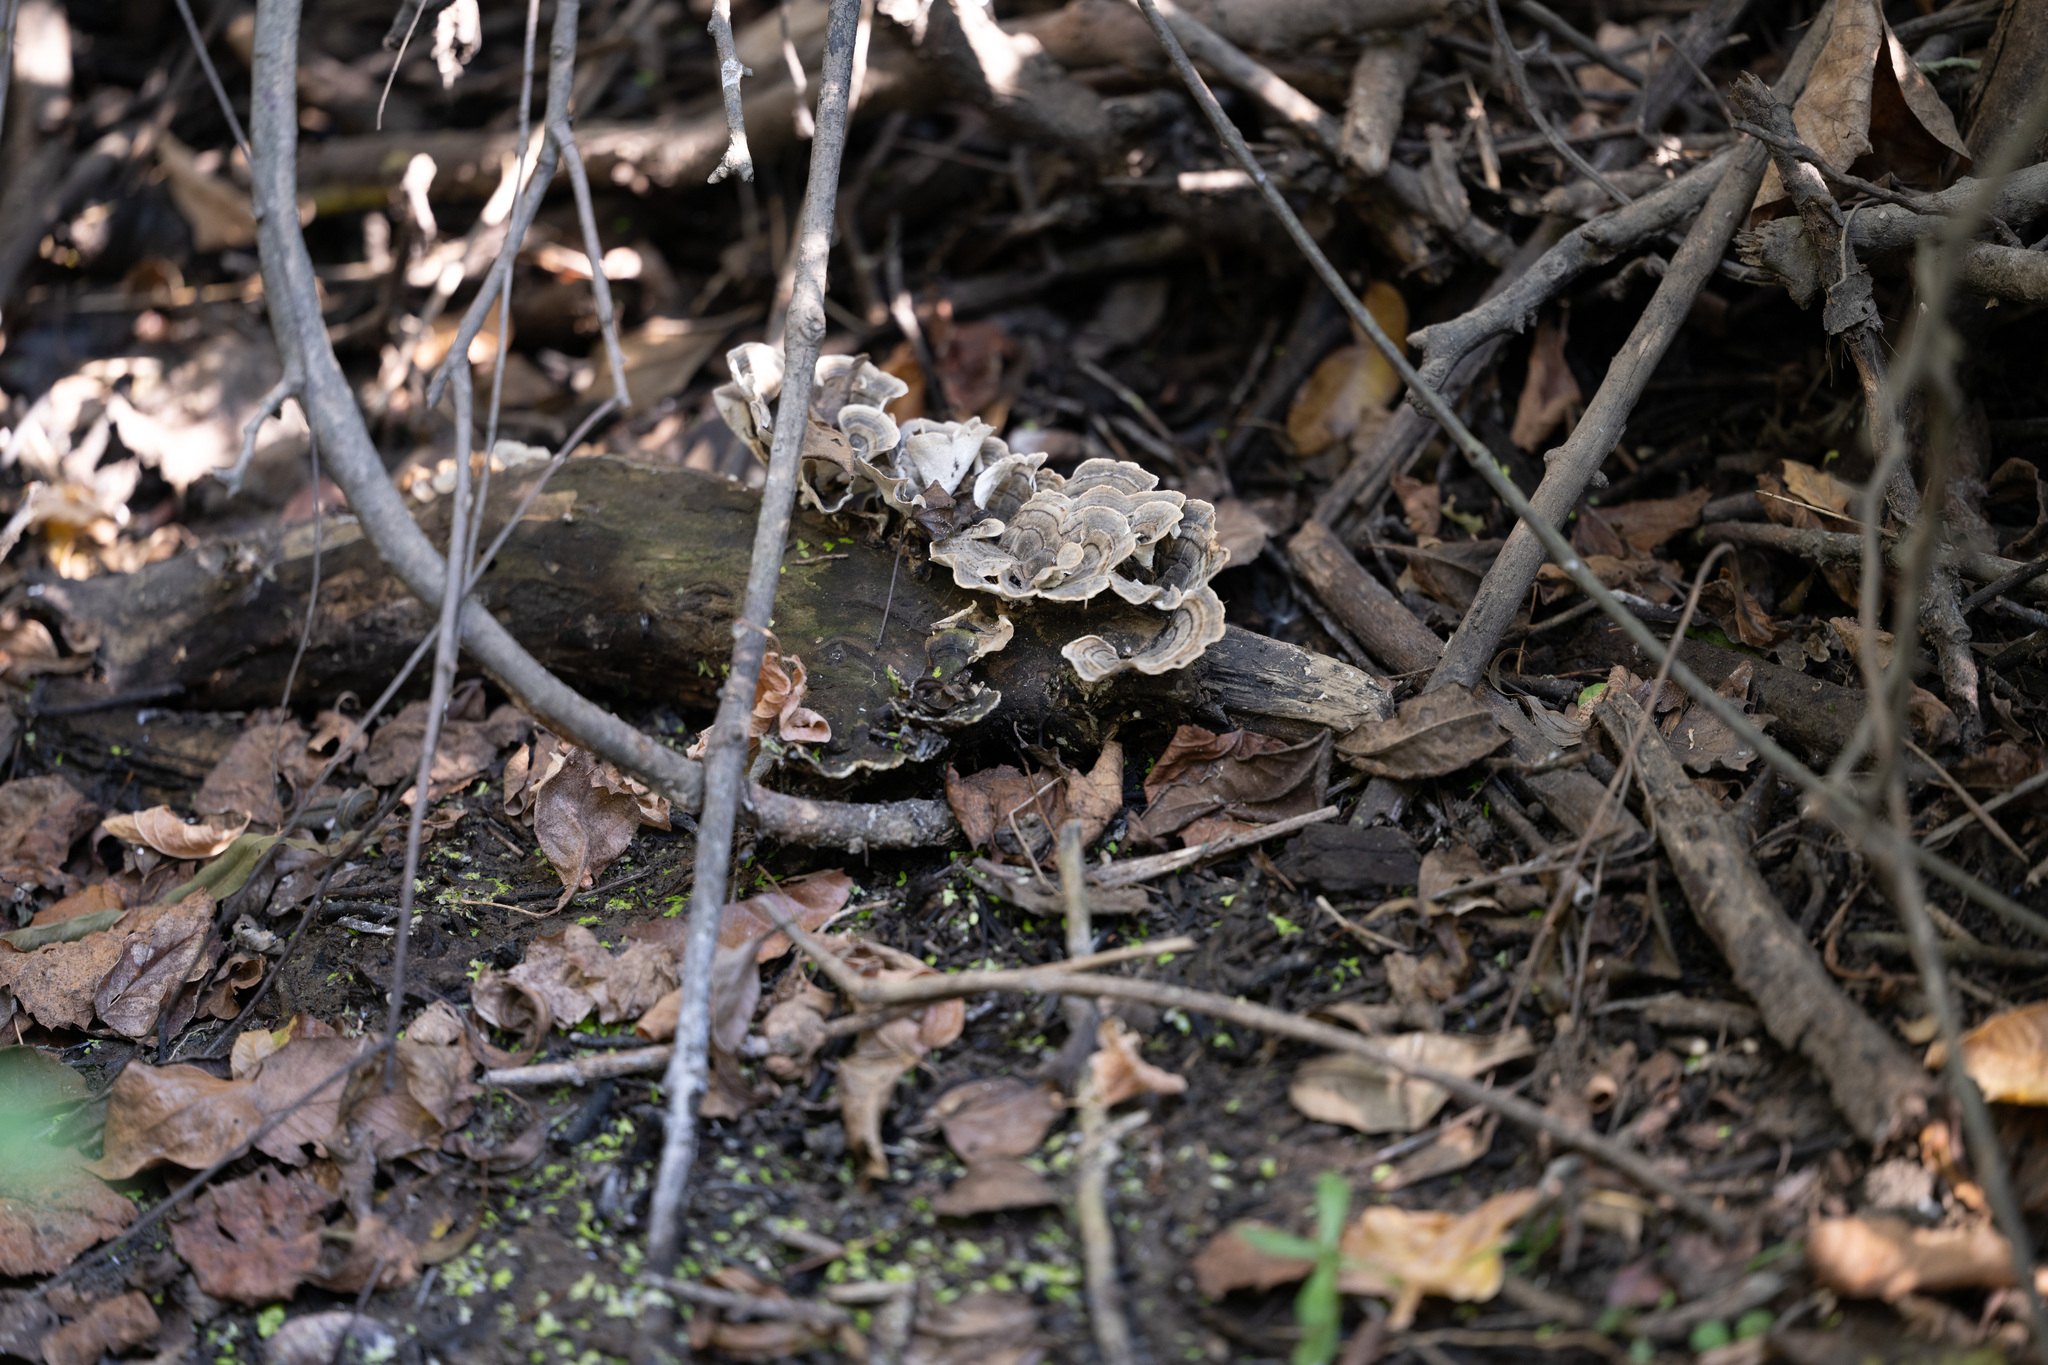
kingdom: Fungi
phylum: Basidiomycota
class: Agaricomycetes
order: Polyporales
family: Polyporaceae
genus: Trametes
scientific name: Trametes versicolor
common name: Turkeytail
